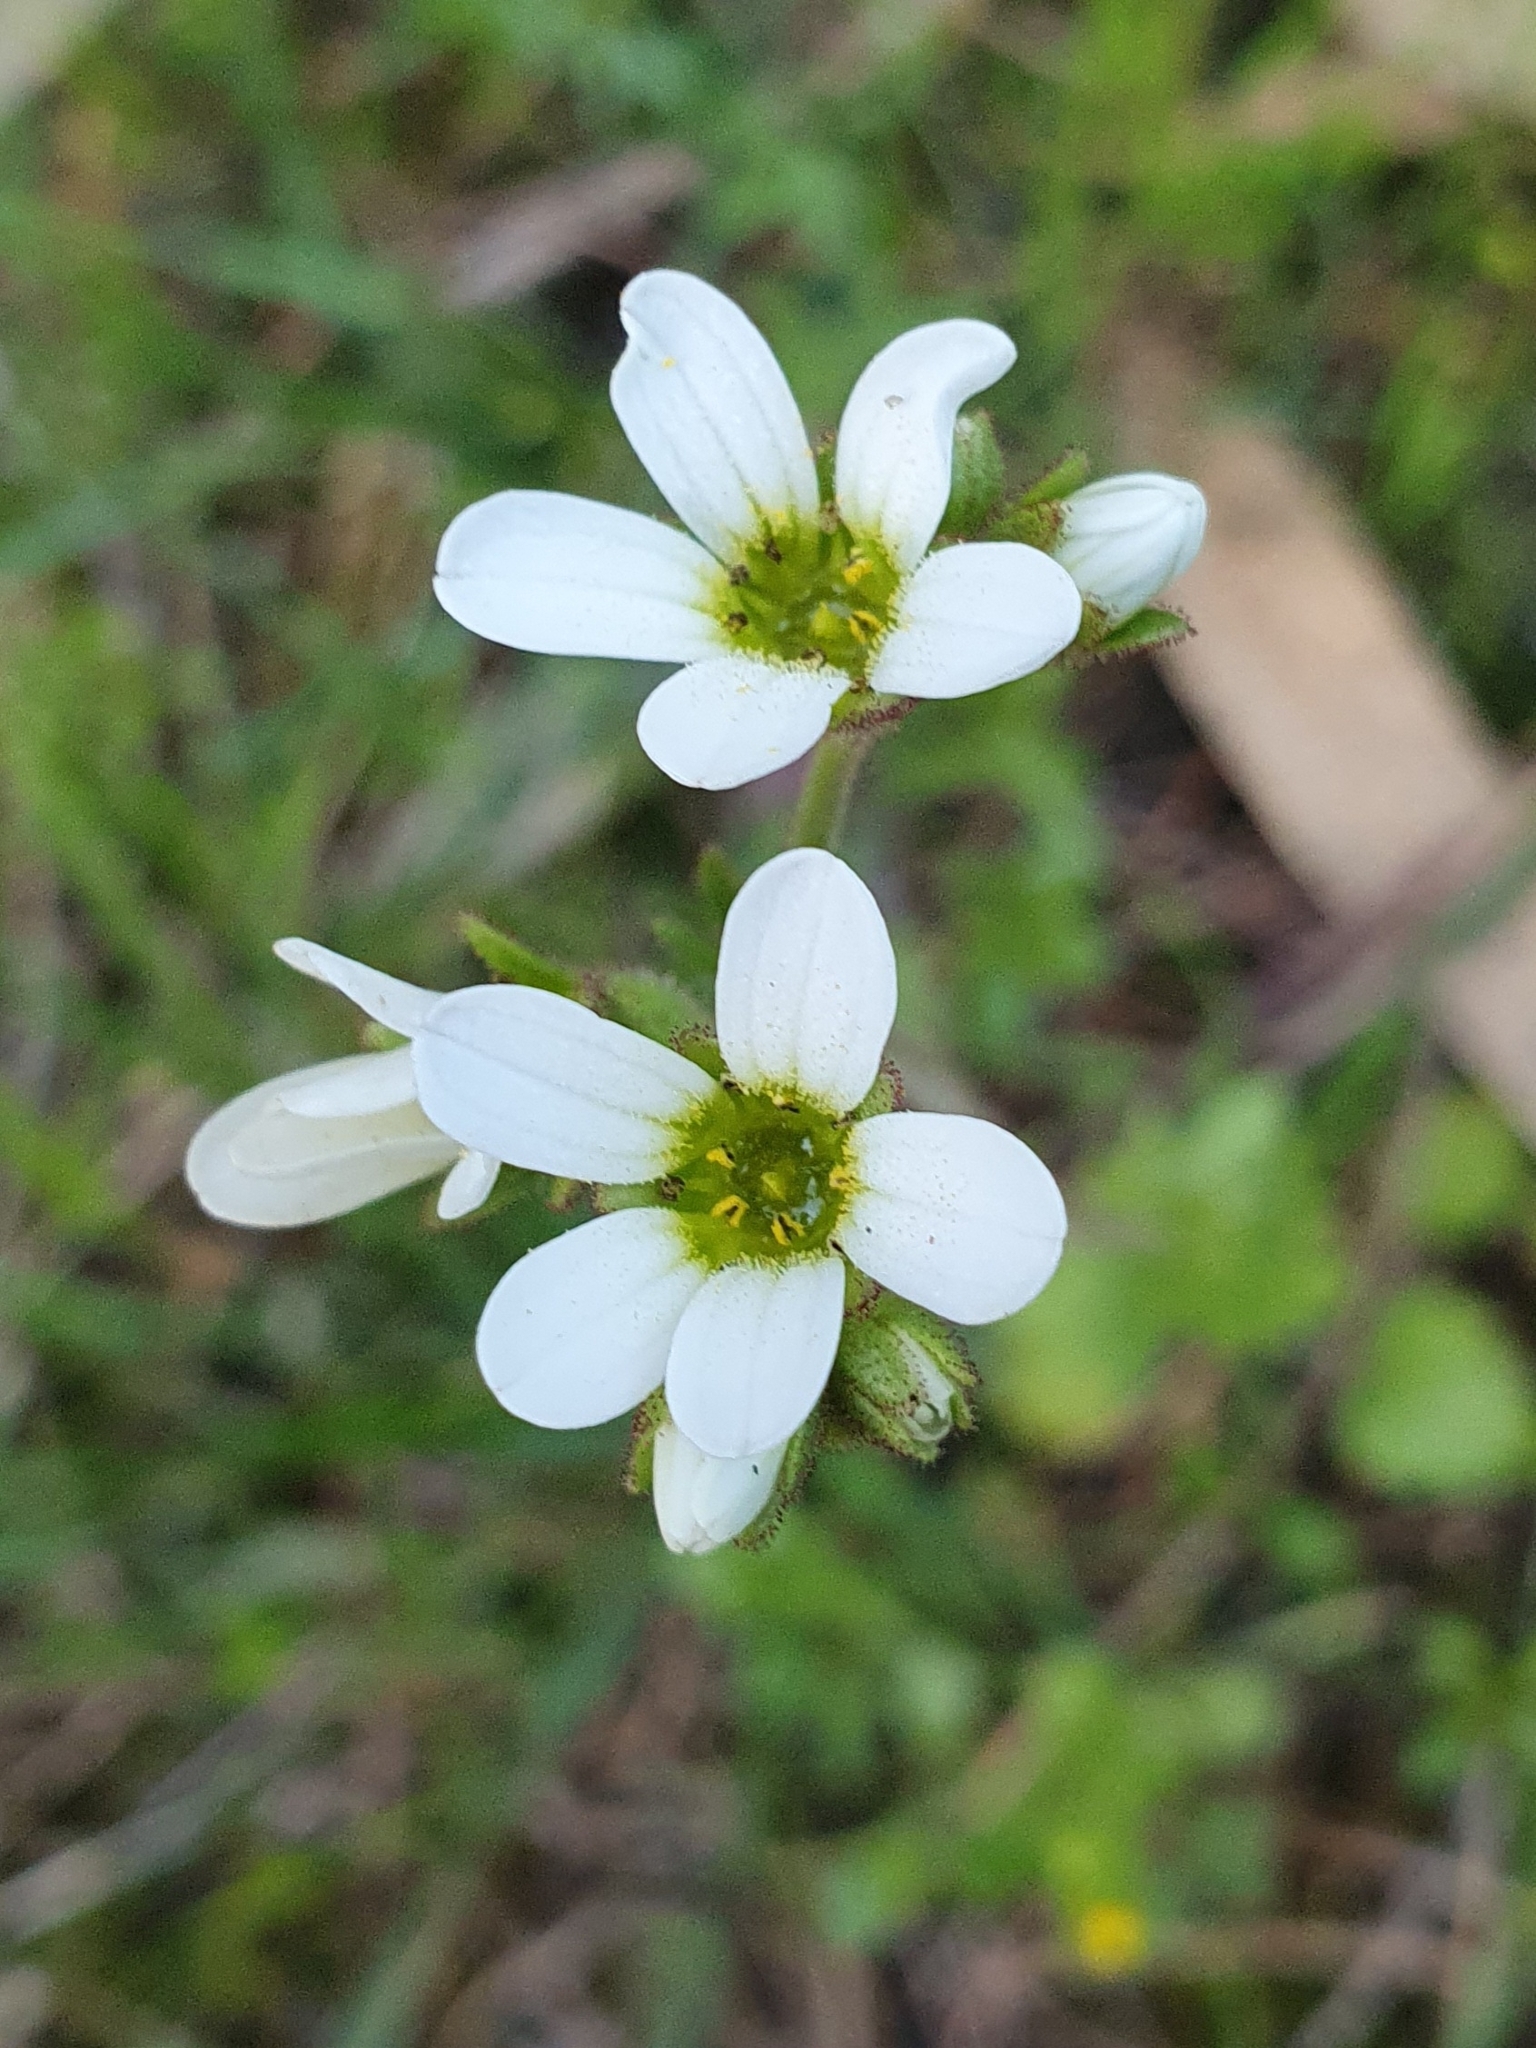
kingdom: Plantae
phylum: Tracheophyta
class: Magnoliopsida
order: Saxifragales
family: Saxifragaceae
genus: Saxifraga
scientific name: Saxifraga carpetana
